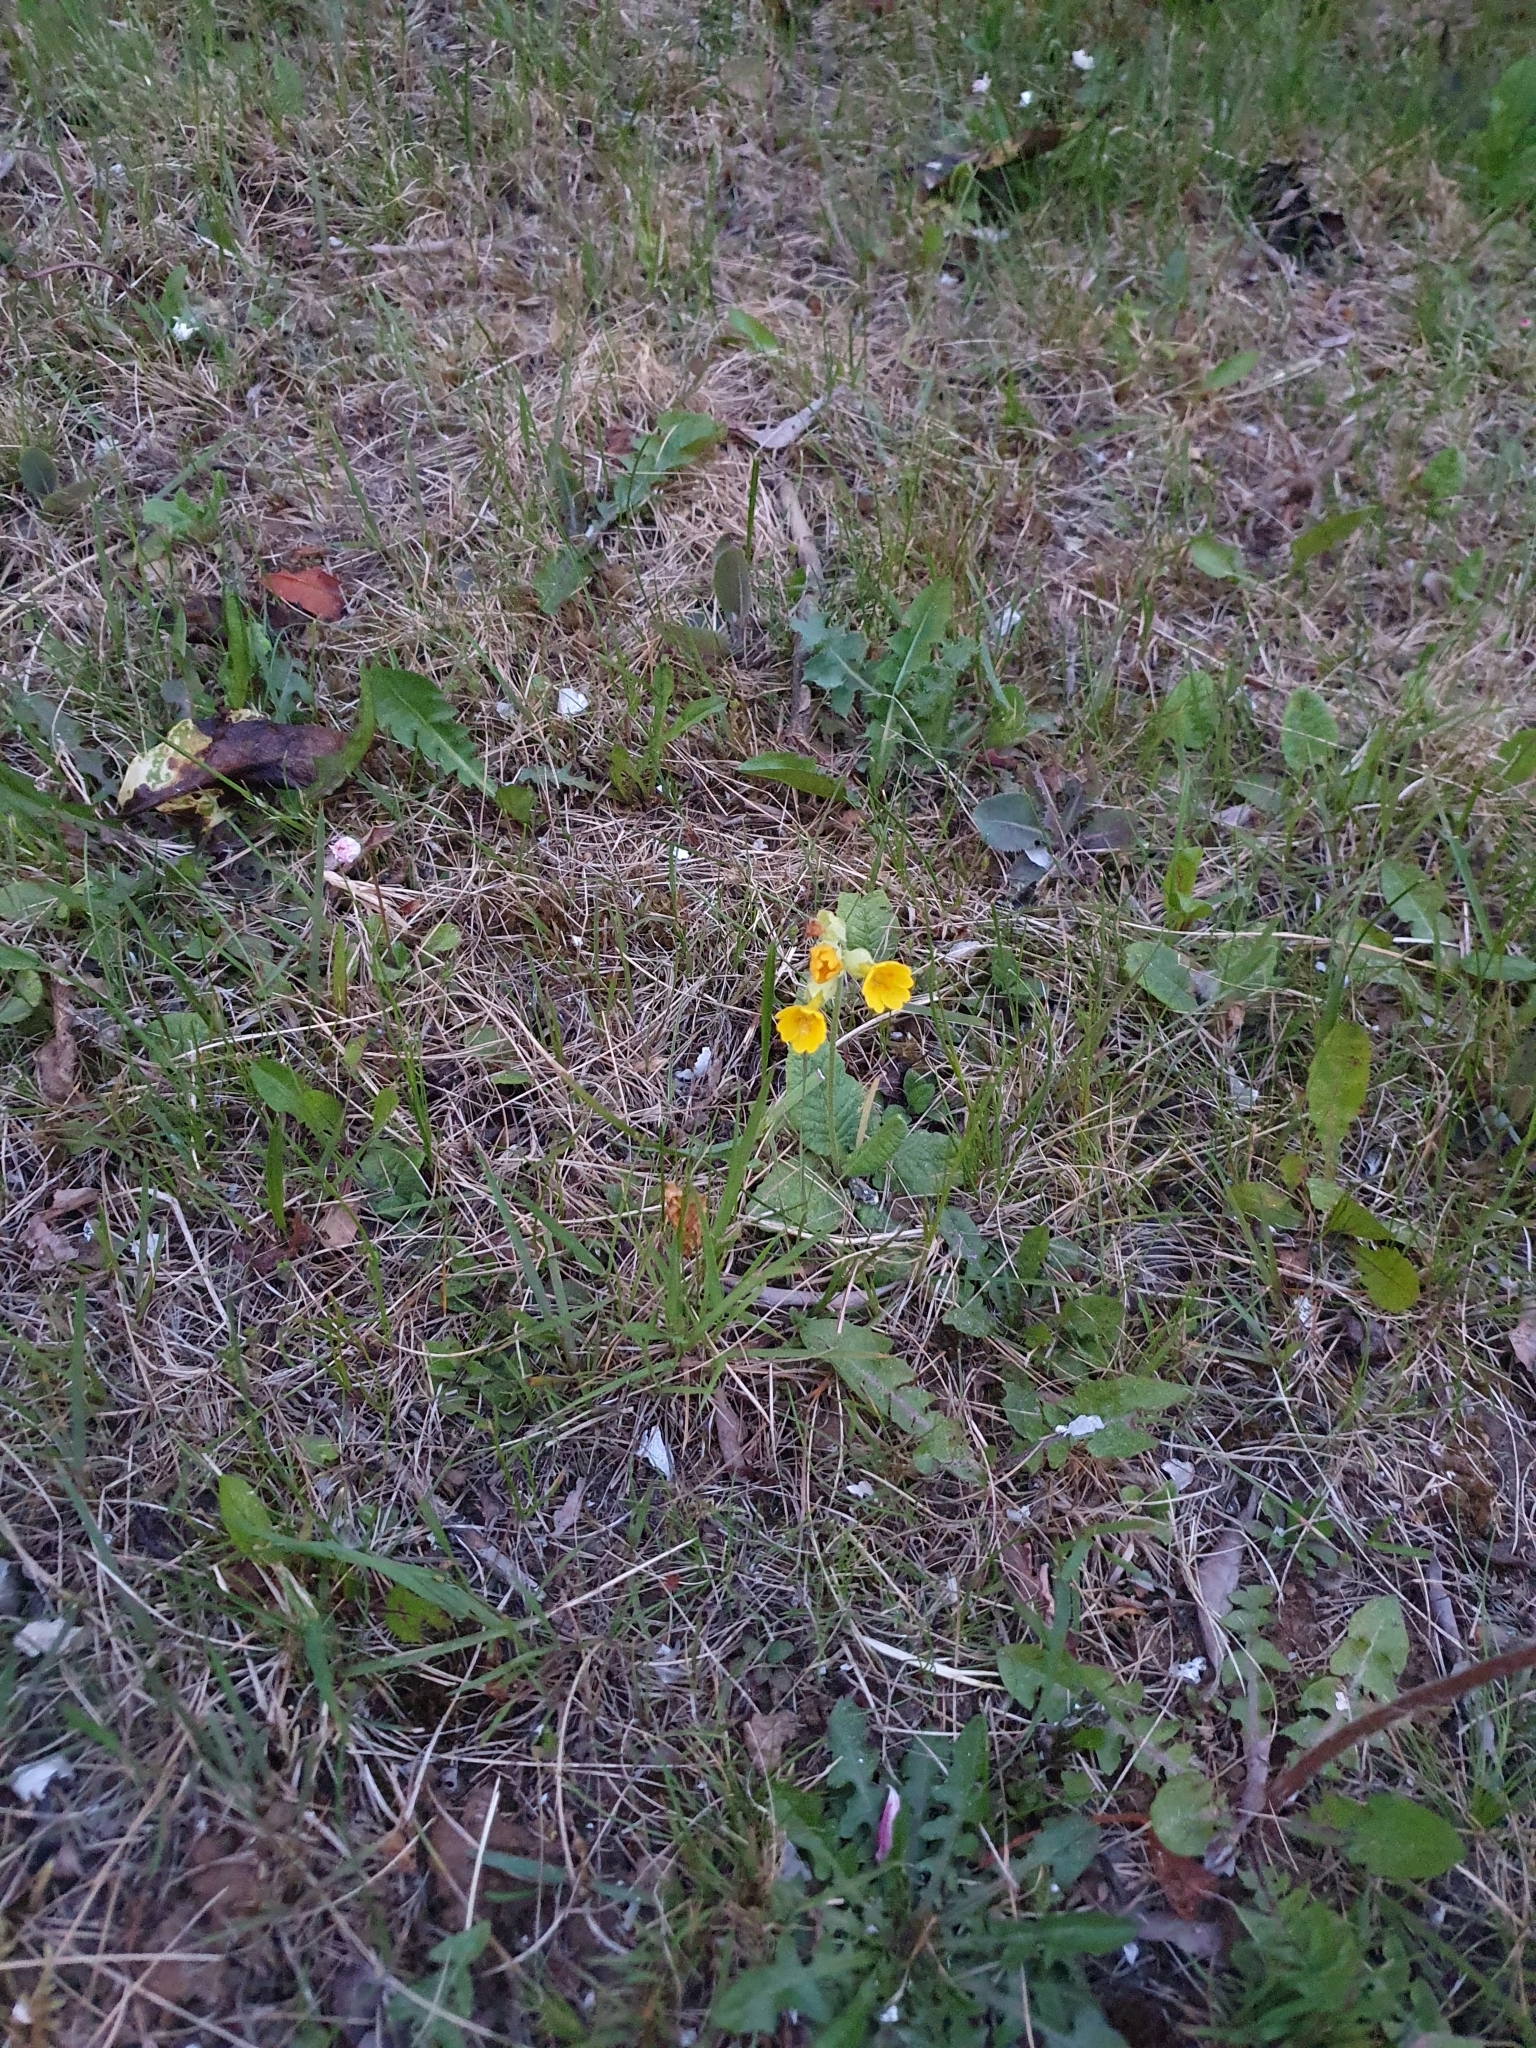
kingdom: Plantae
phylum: Tracheophyta
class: Magnoliopsida
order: Ericales
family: Primulaceae
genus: Primula
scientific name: Primula veris
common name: Cowslip
